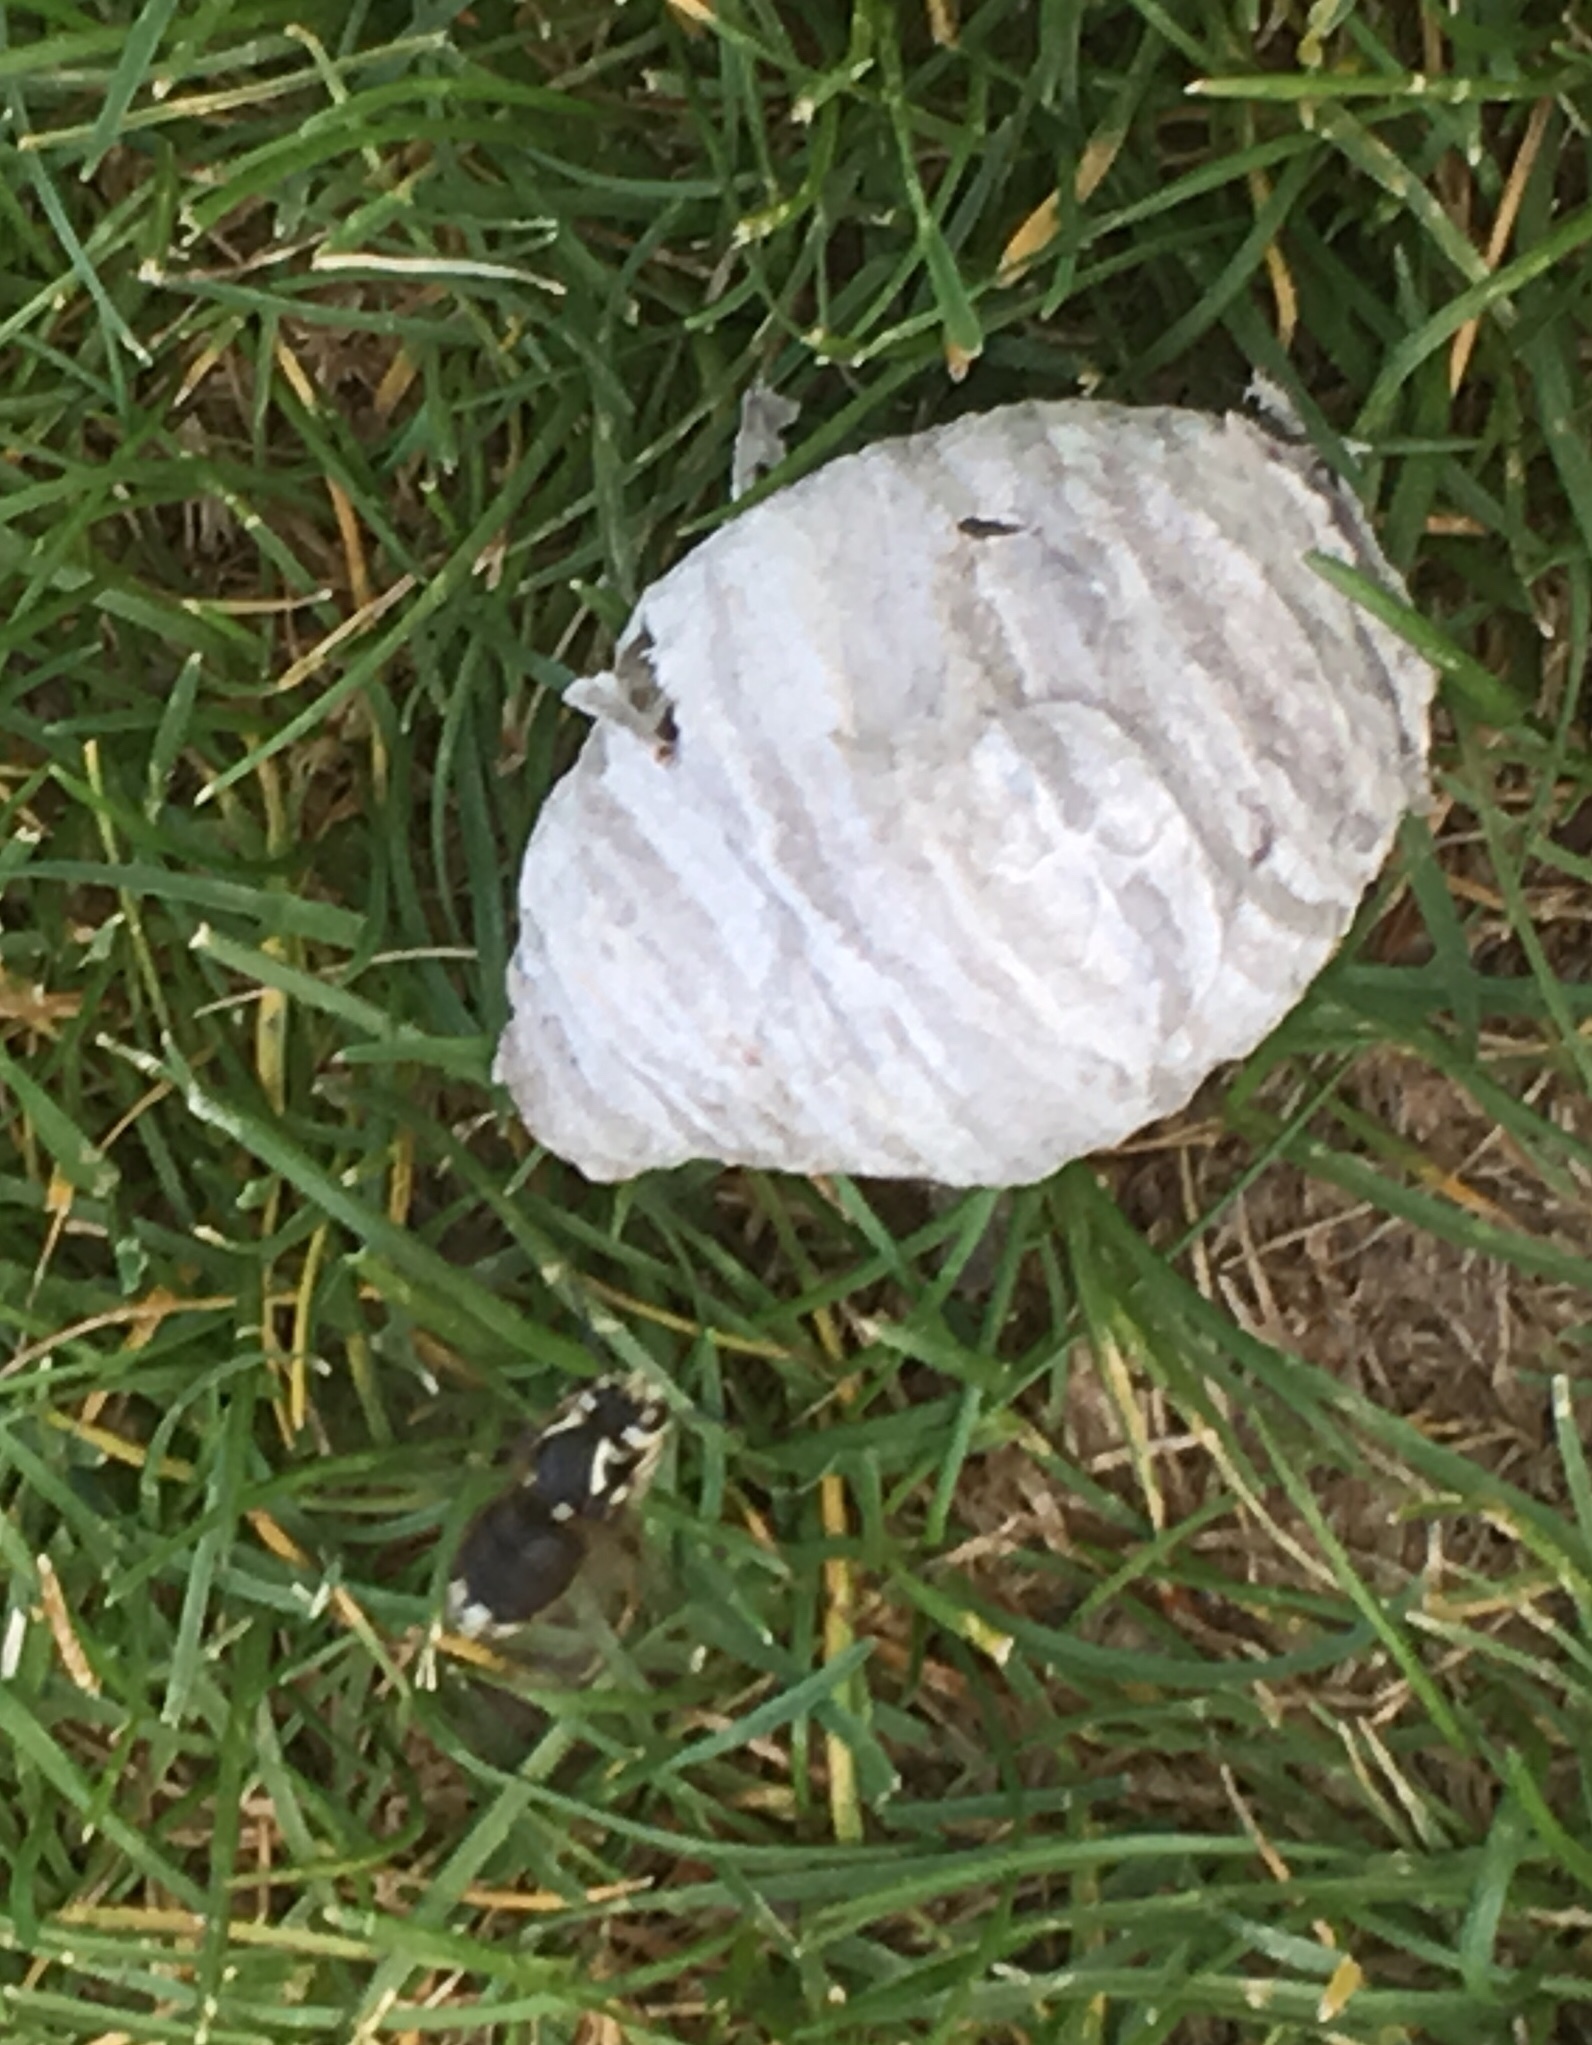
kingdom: Animalia
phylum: Arthropoda
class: Insecta
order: Hymenoptera
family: Vespidae
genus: Dolichovespula
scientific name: Dolichovespula maculata
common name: Bald-faced hornet
